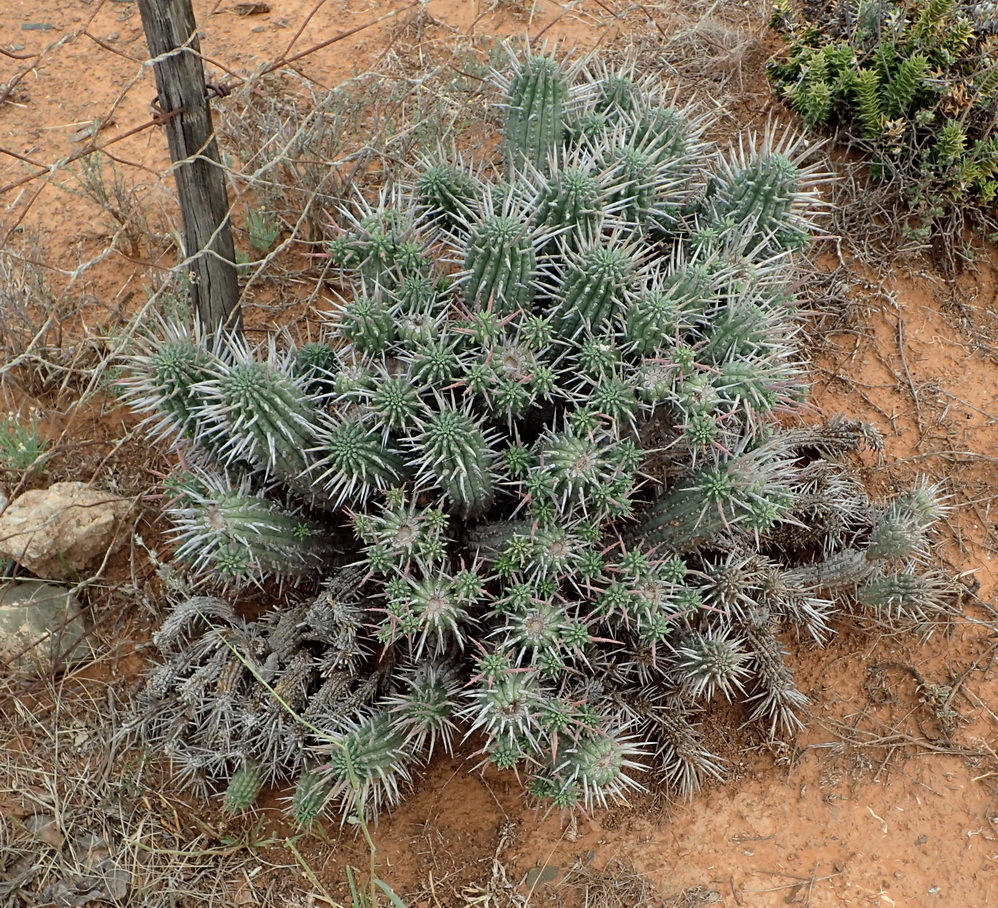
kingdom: Plantae
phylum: Tracheophyta
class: Magnoliopsida
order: Malpighiales
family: Euphorbiaceae
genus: Euphorbia
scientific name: Euphorbia ferox
